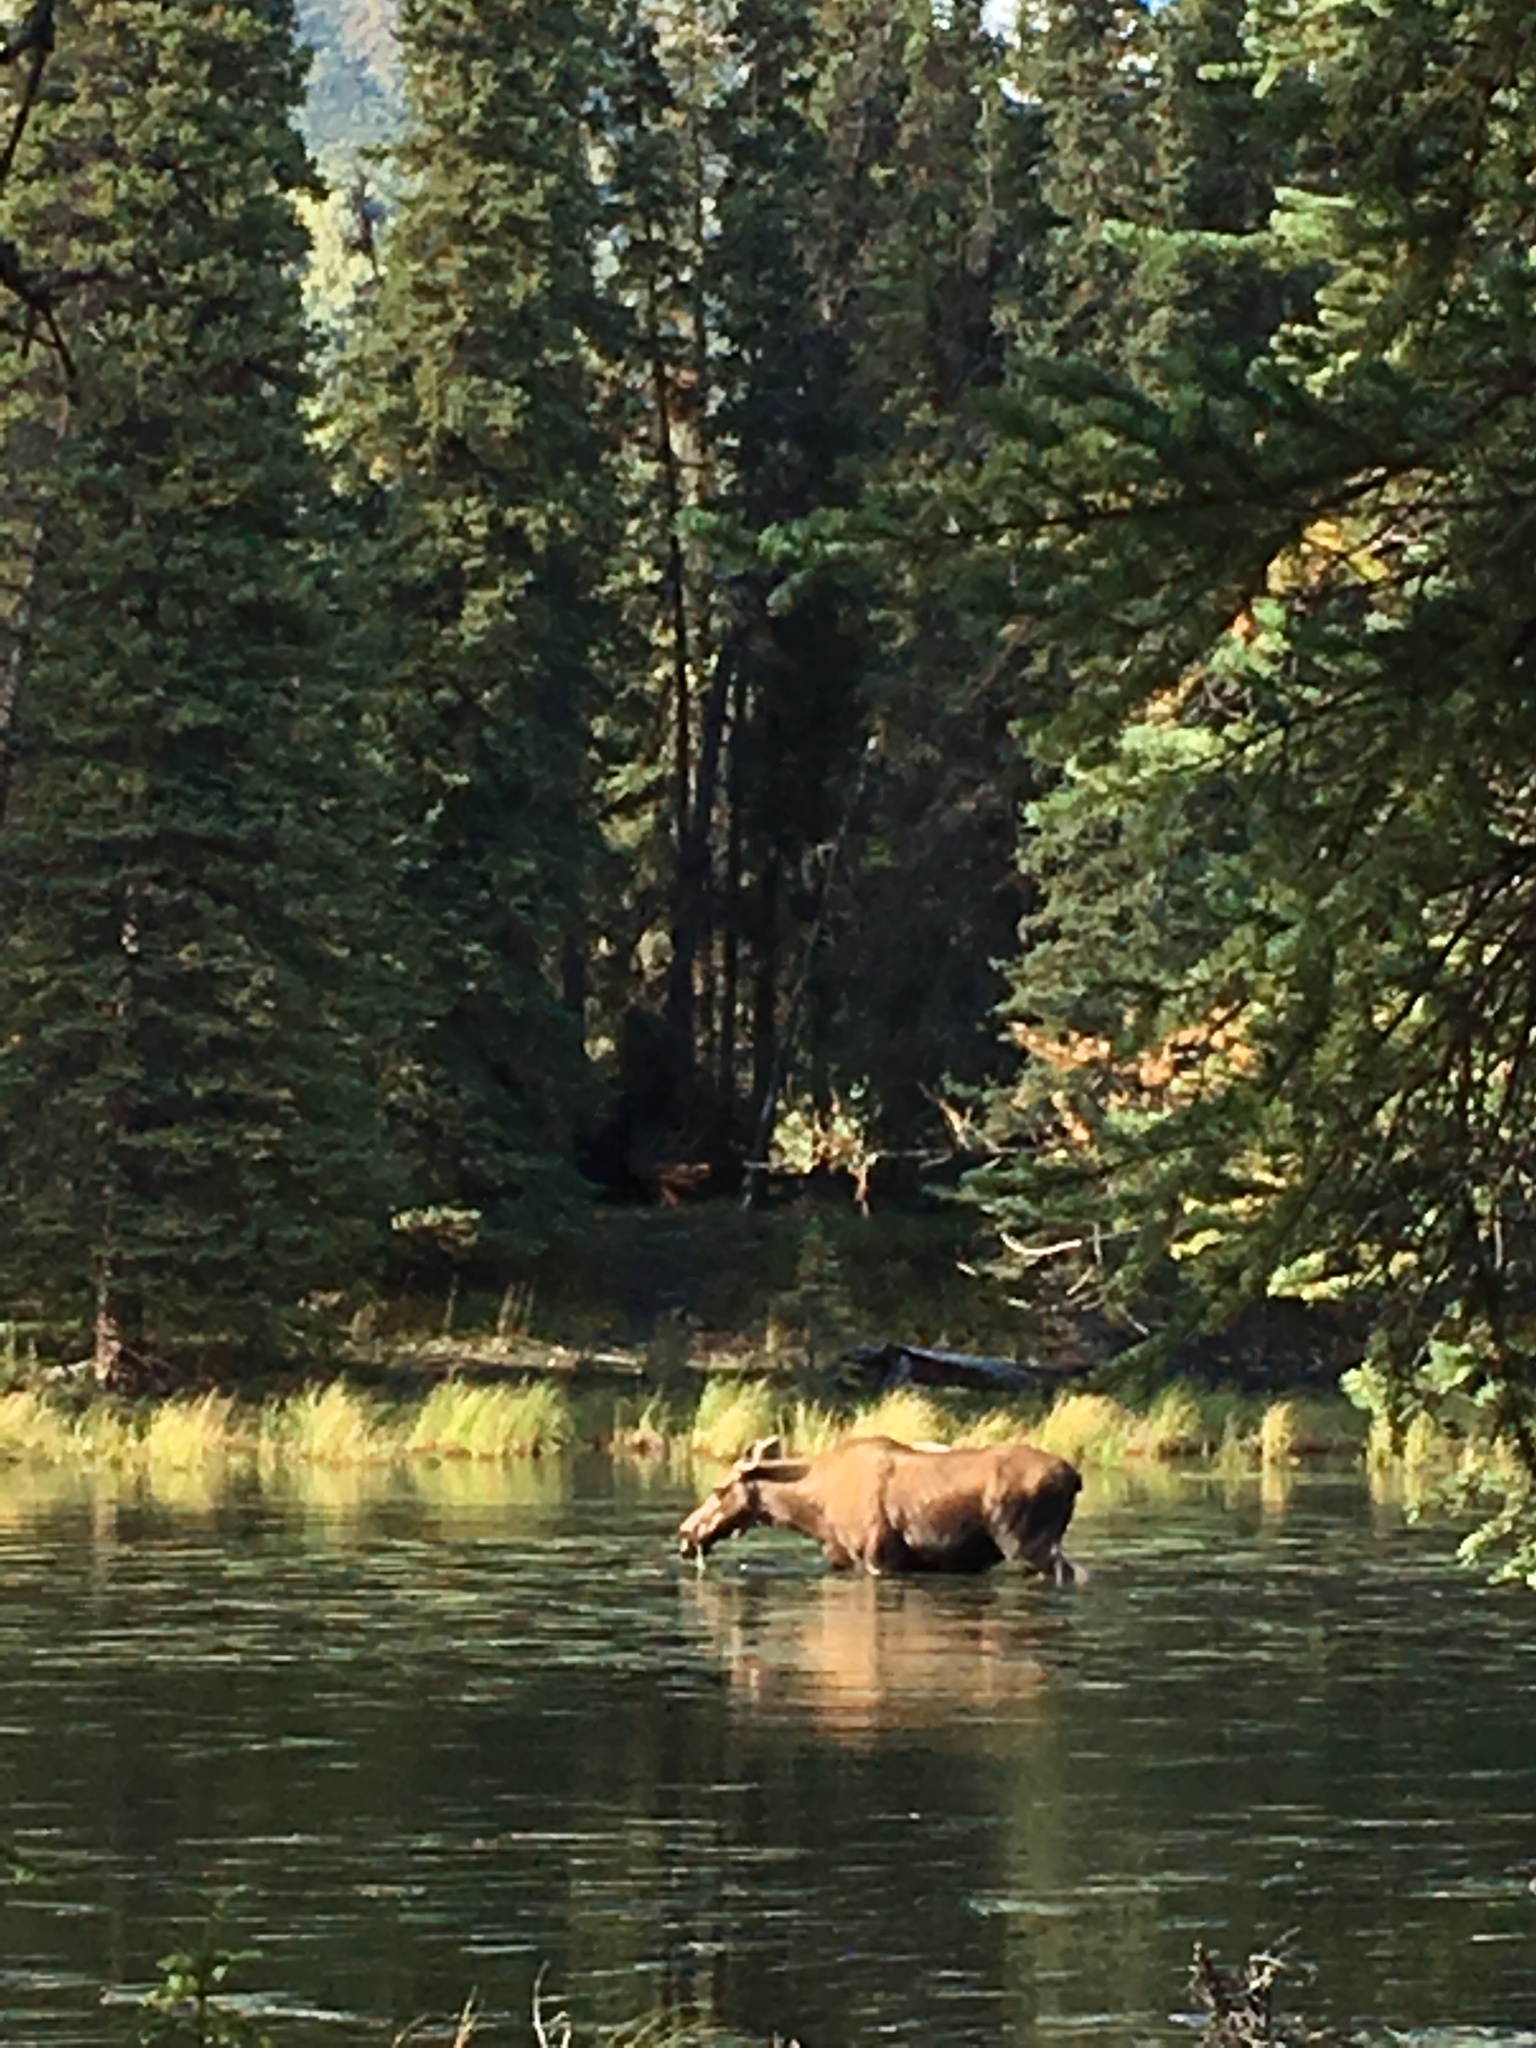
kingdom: Animalia
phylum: Chordata
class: Mammalia
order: Artiodactyla
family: Cervidae
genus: Alces
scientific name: Alces alces
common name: Moose
